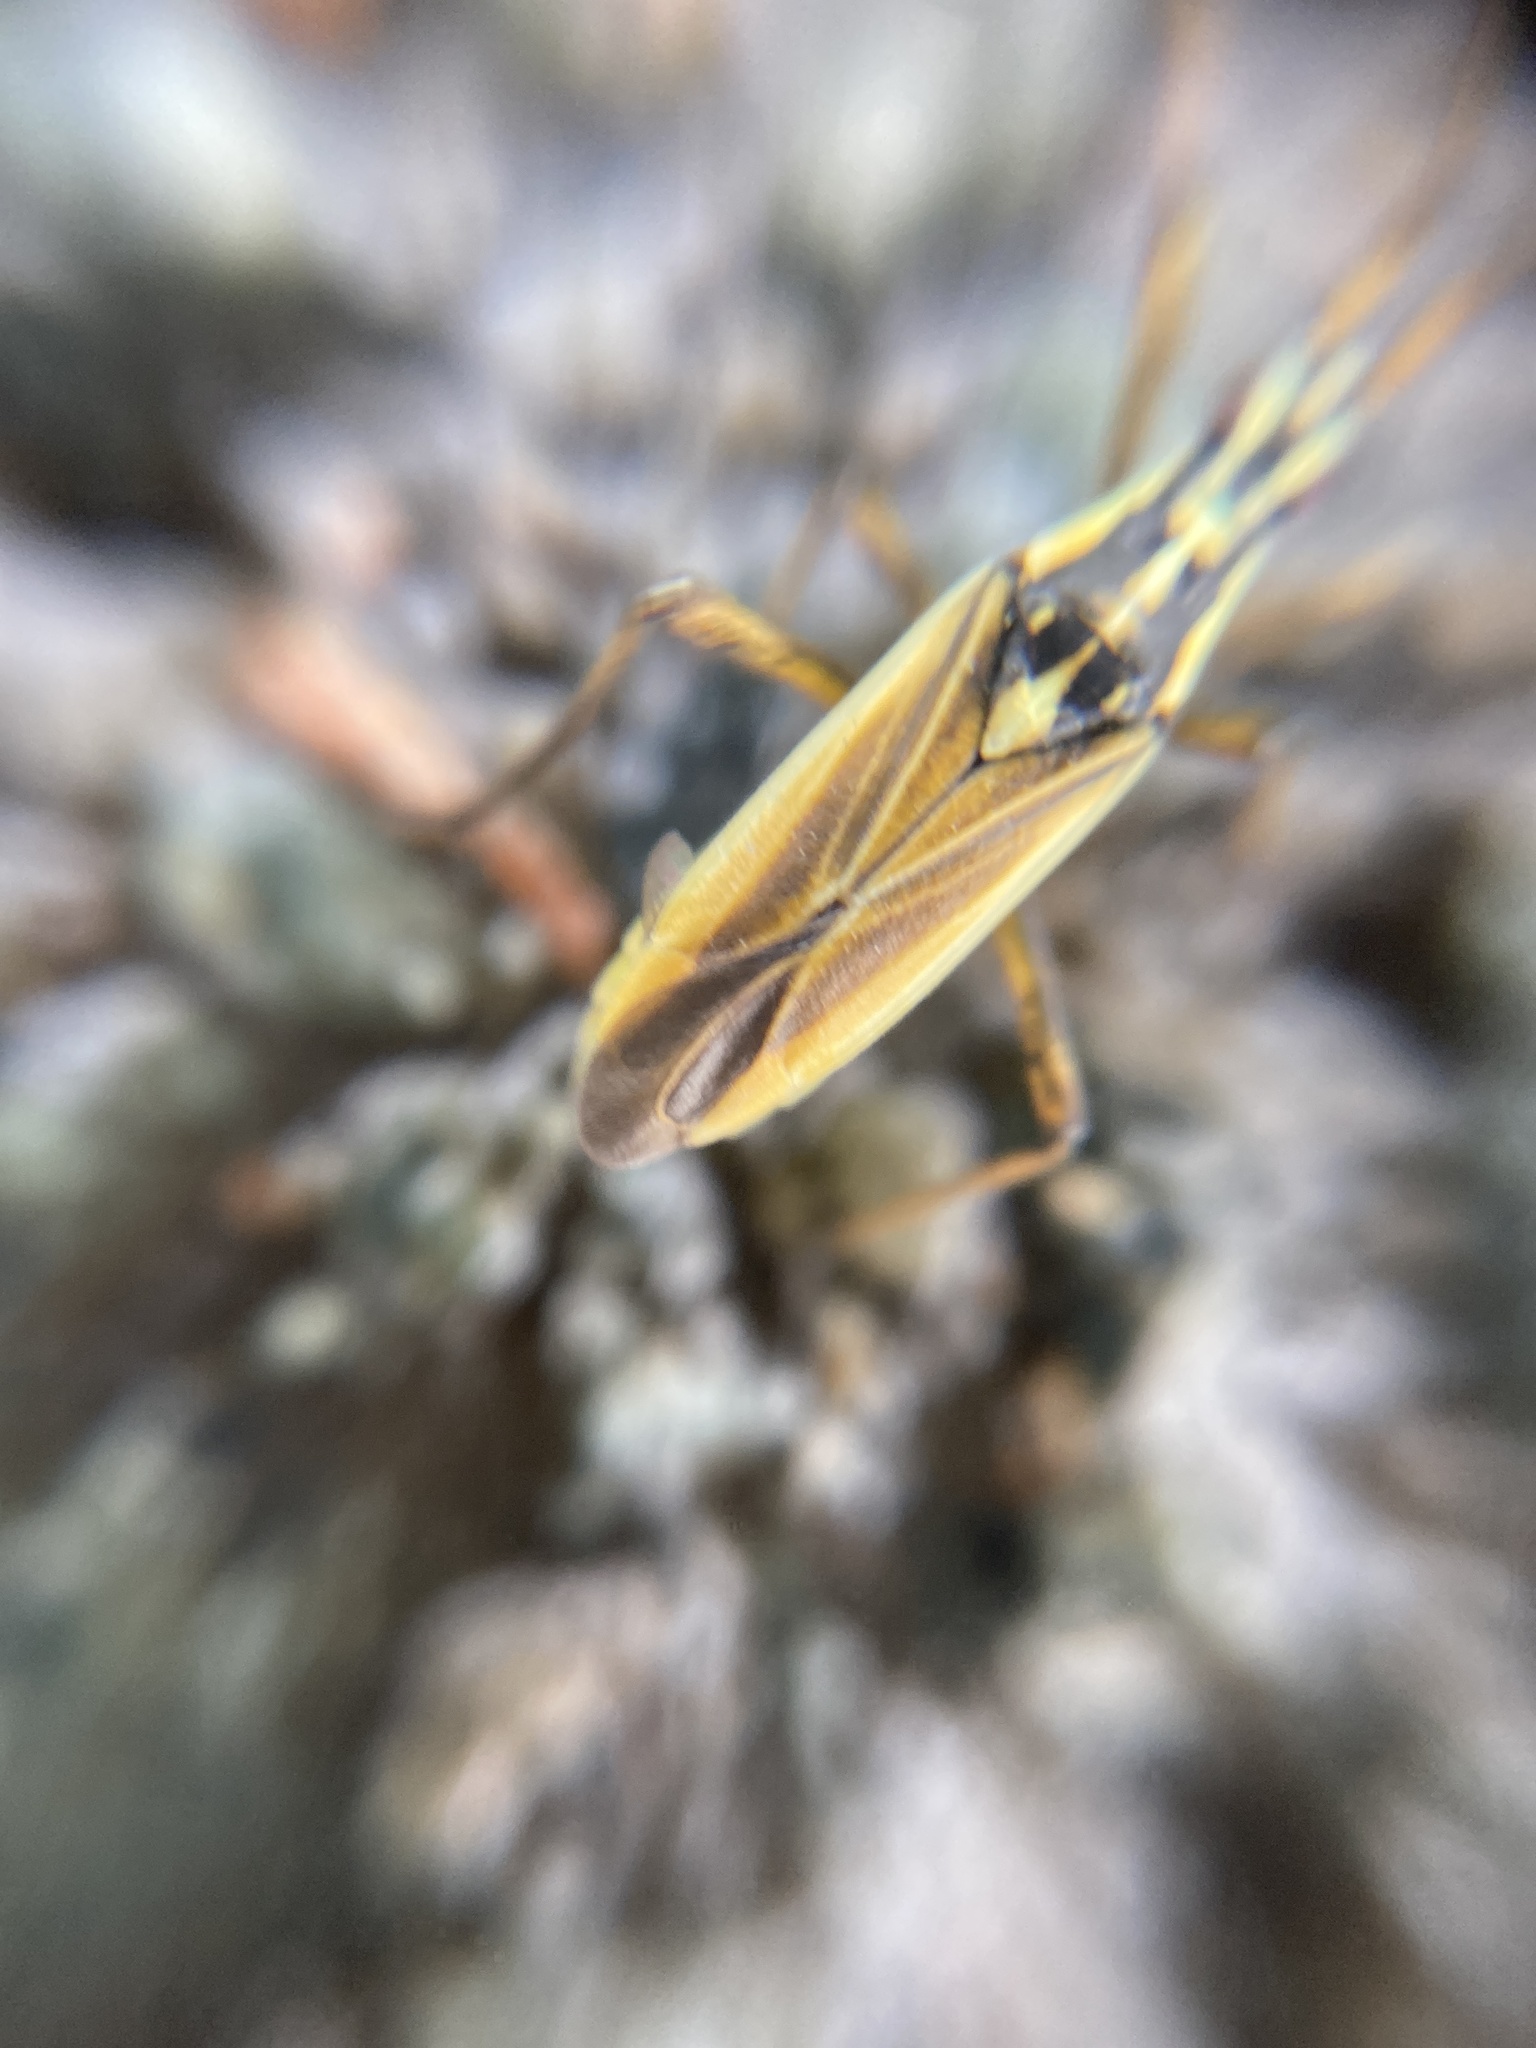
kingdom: Animalia
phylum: Arthropoda
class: Insecta
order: Hemiptera
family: Miridae
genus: Leptopterna
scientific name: Leptopterna dolabrata
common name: Meadow plant bug
